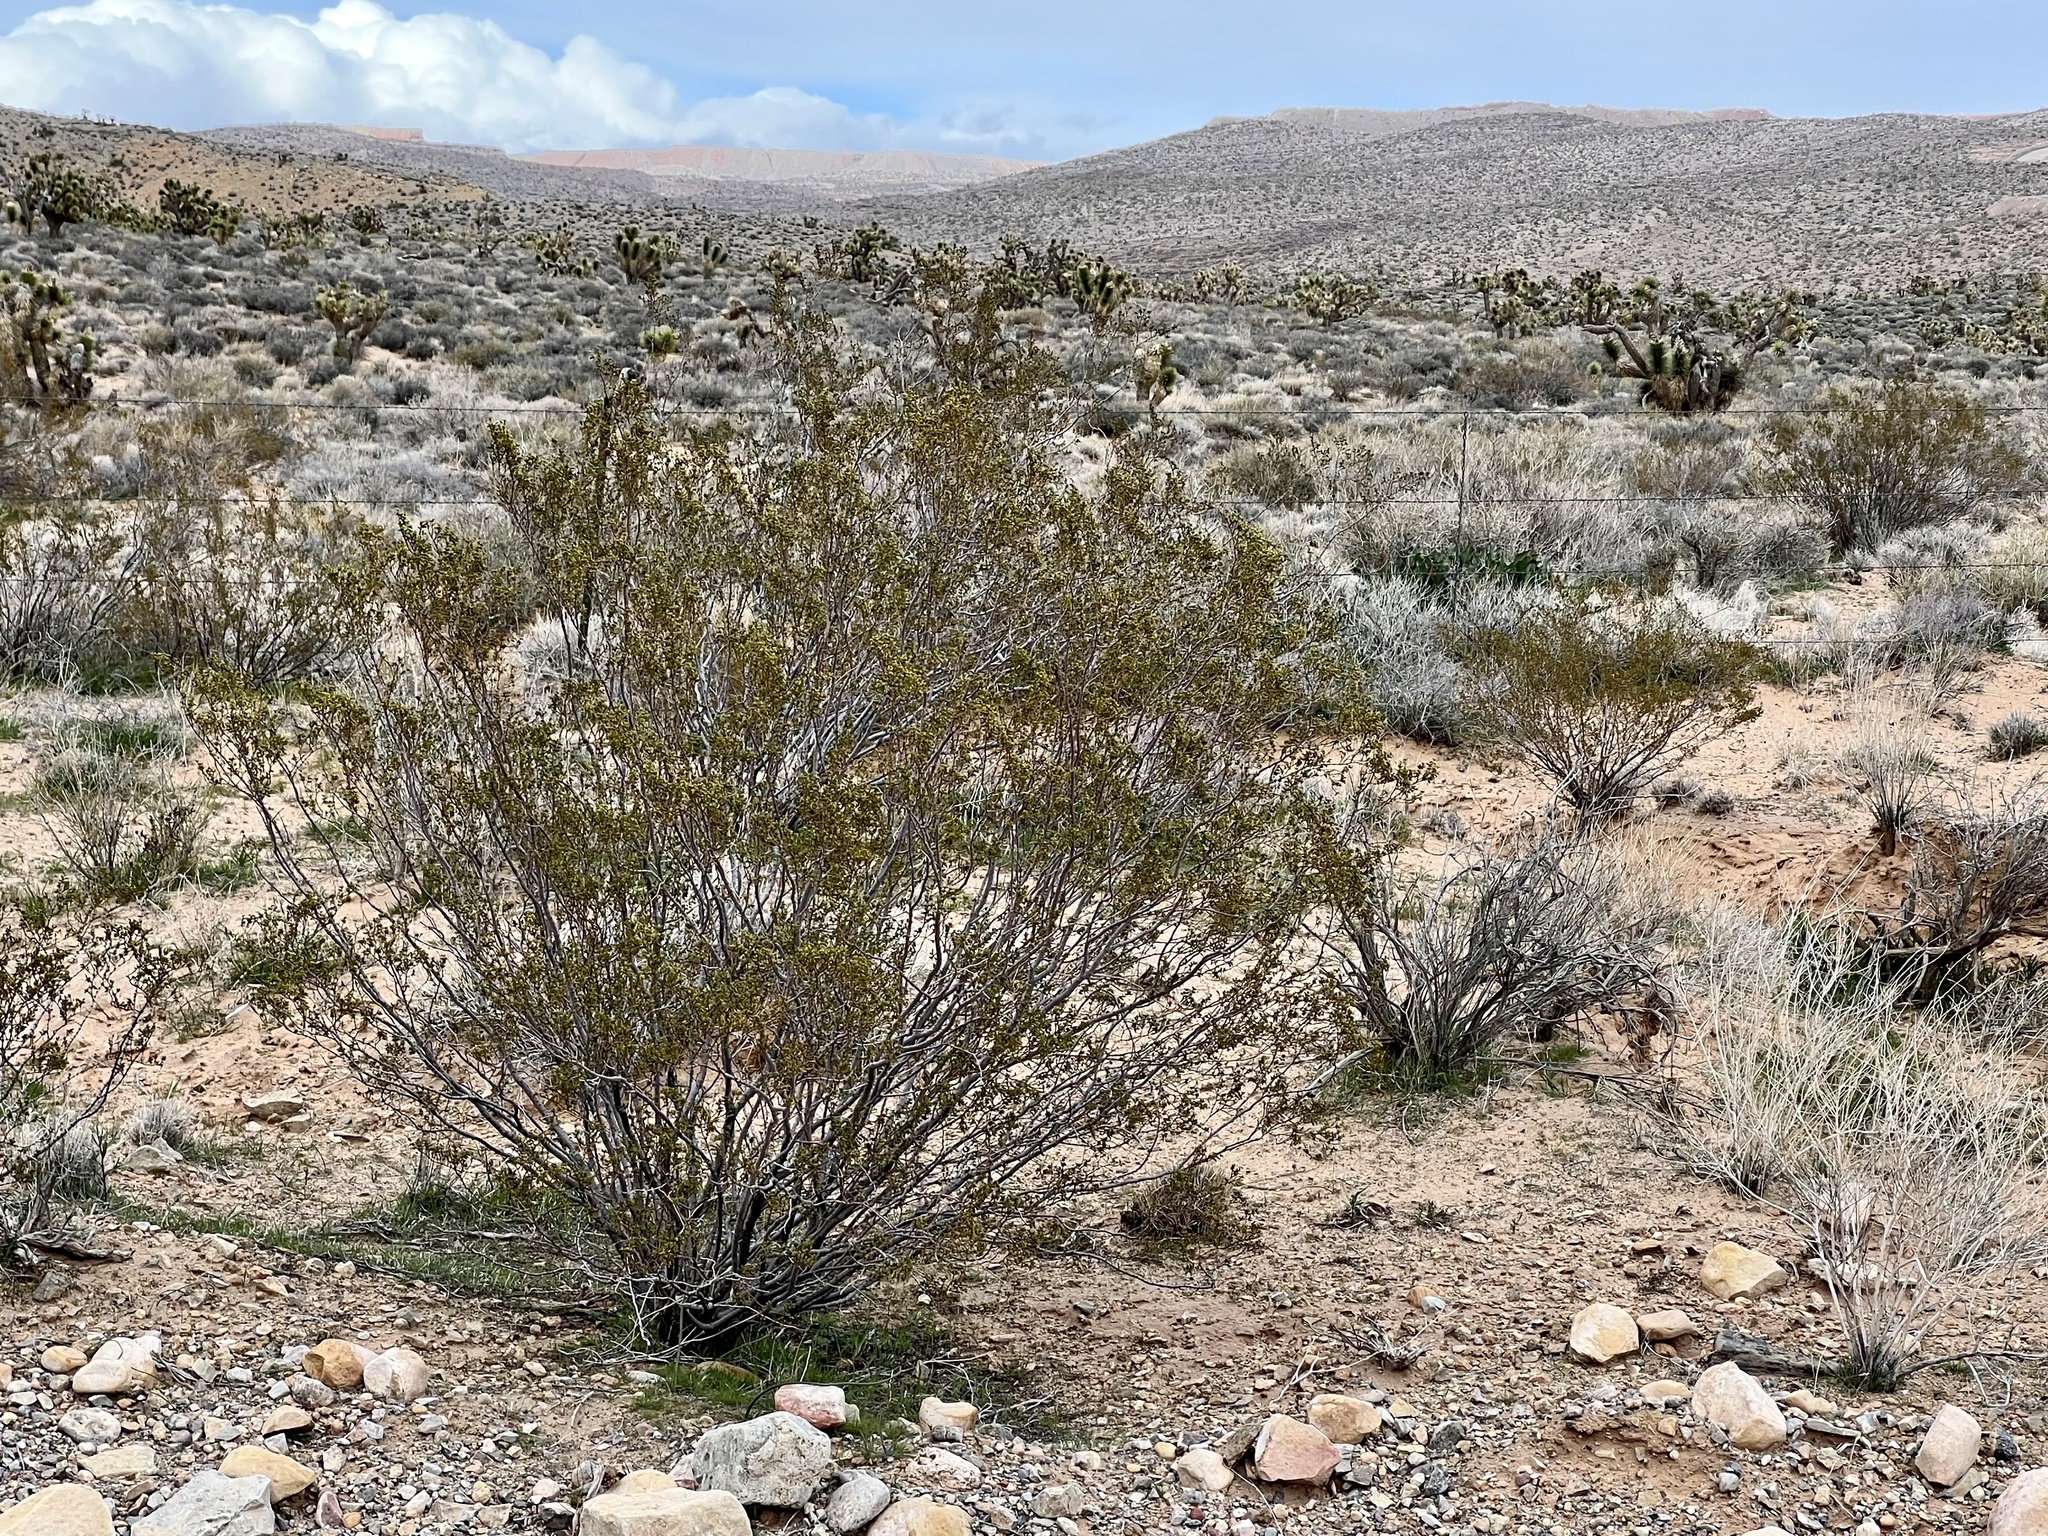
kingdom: Plantae
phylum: Tracheophyta
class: Magnoliopsida
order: Zygophyllales
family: Zygophyllaceae
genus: Larrea
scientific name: Larrea tridentata
